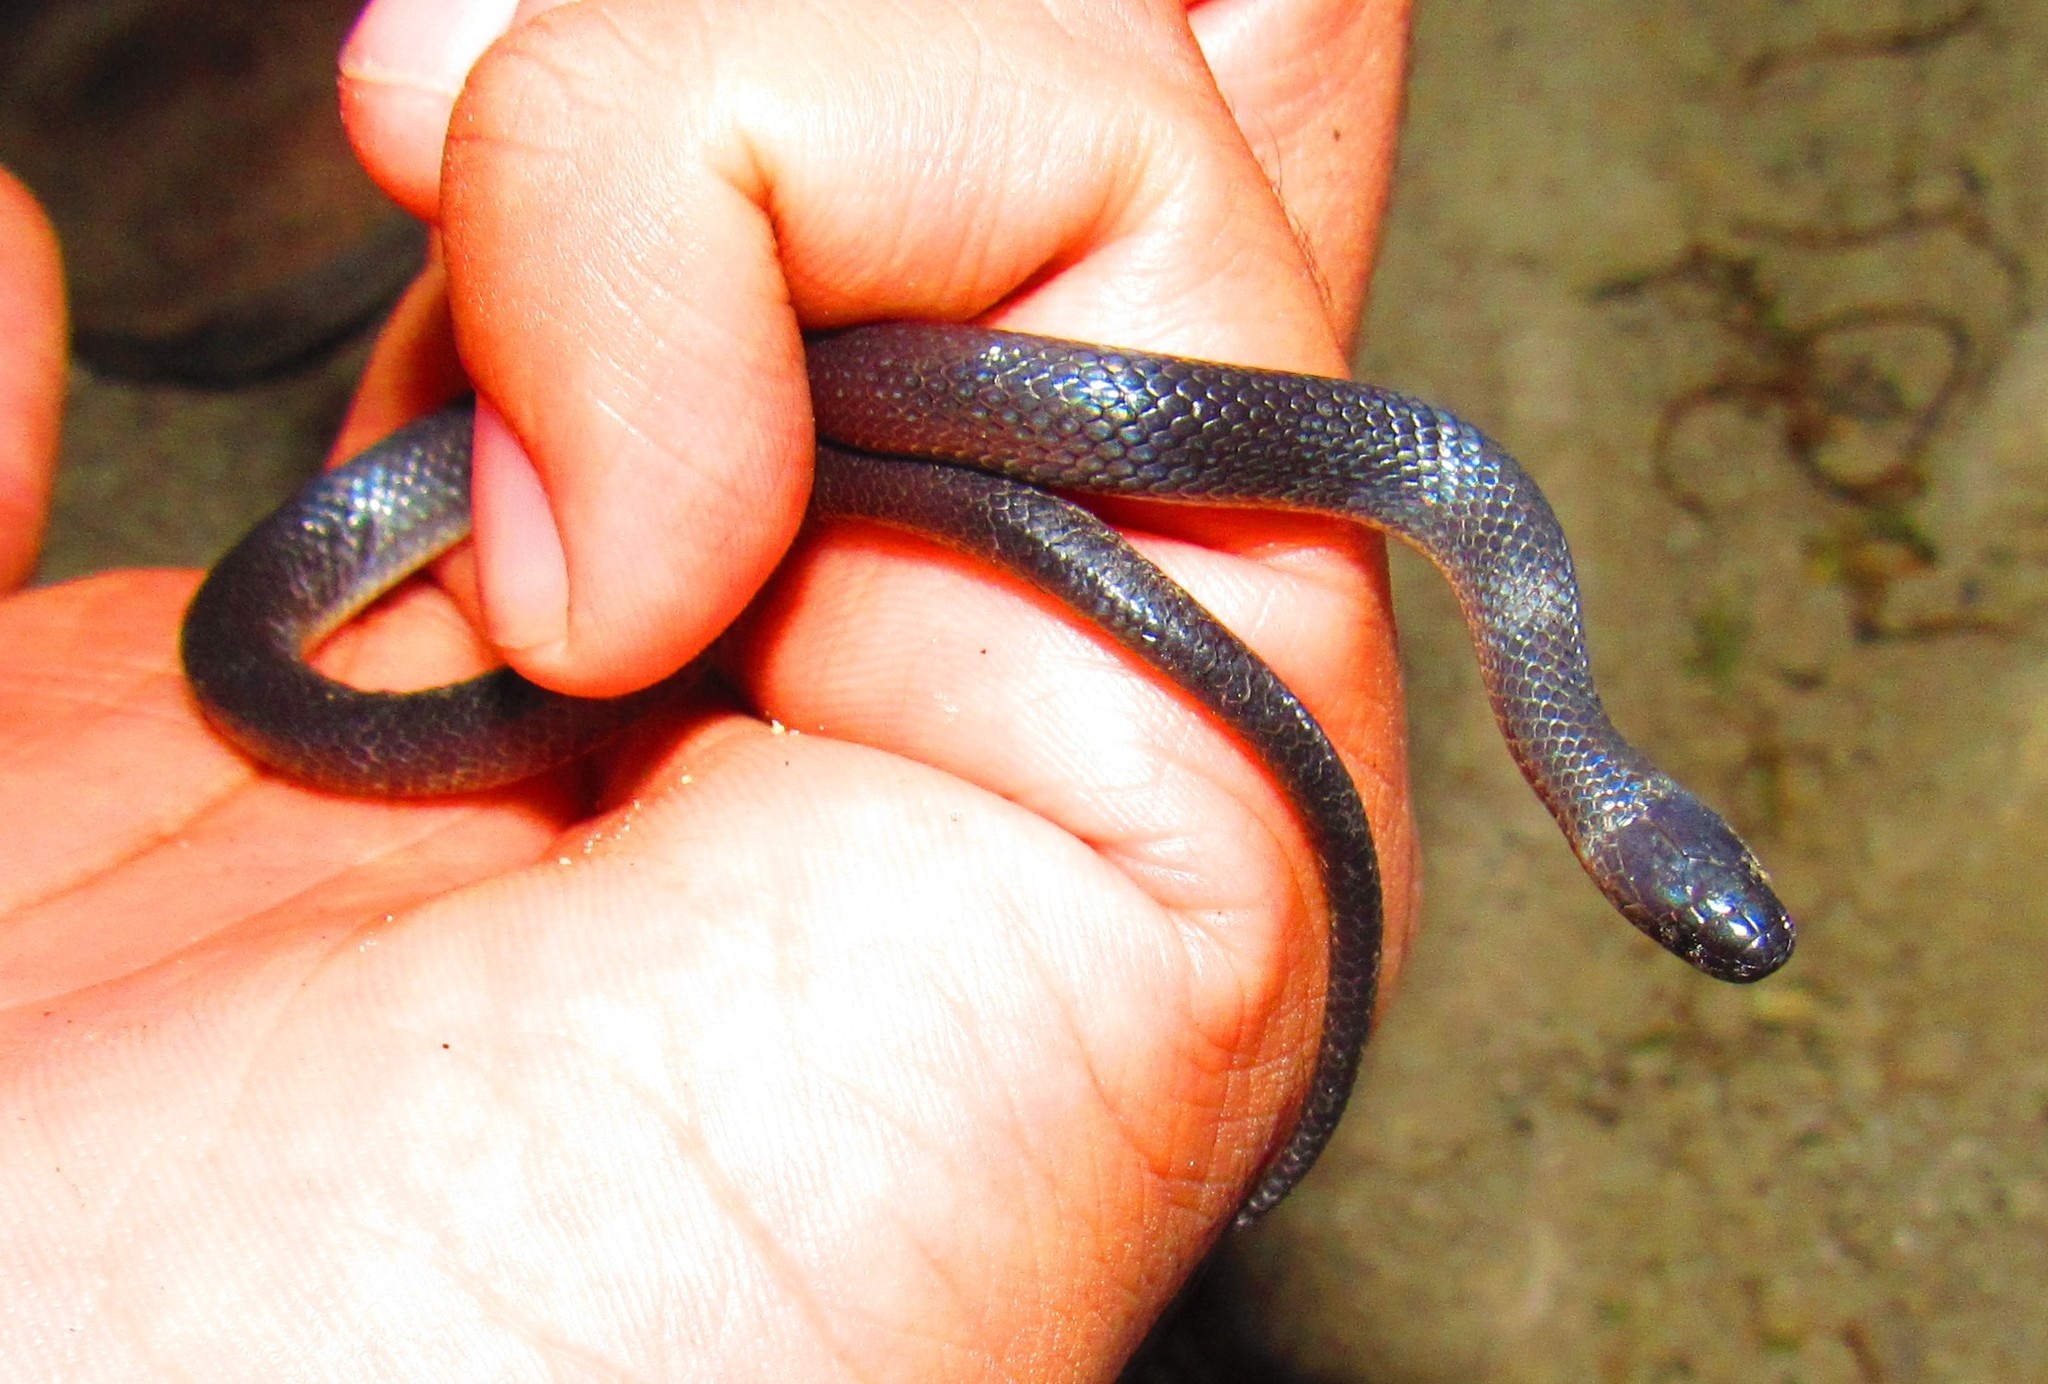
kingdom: Animalia
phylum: Chordata
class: Squamata
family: Colubridae
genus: Geophis
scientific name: Geophis dugesii
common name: Dugès' earth snake
